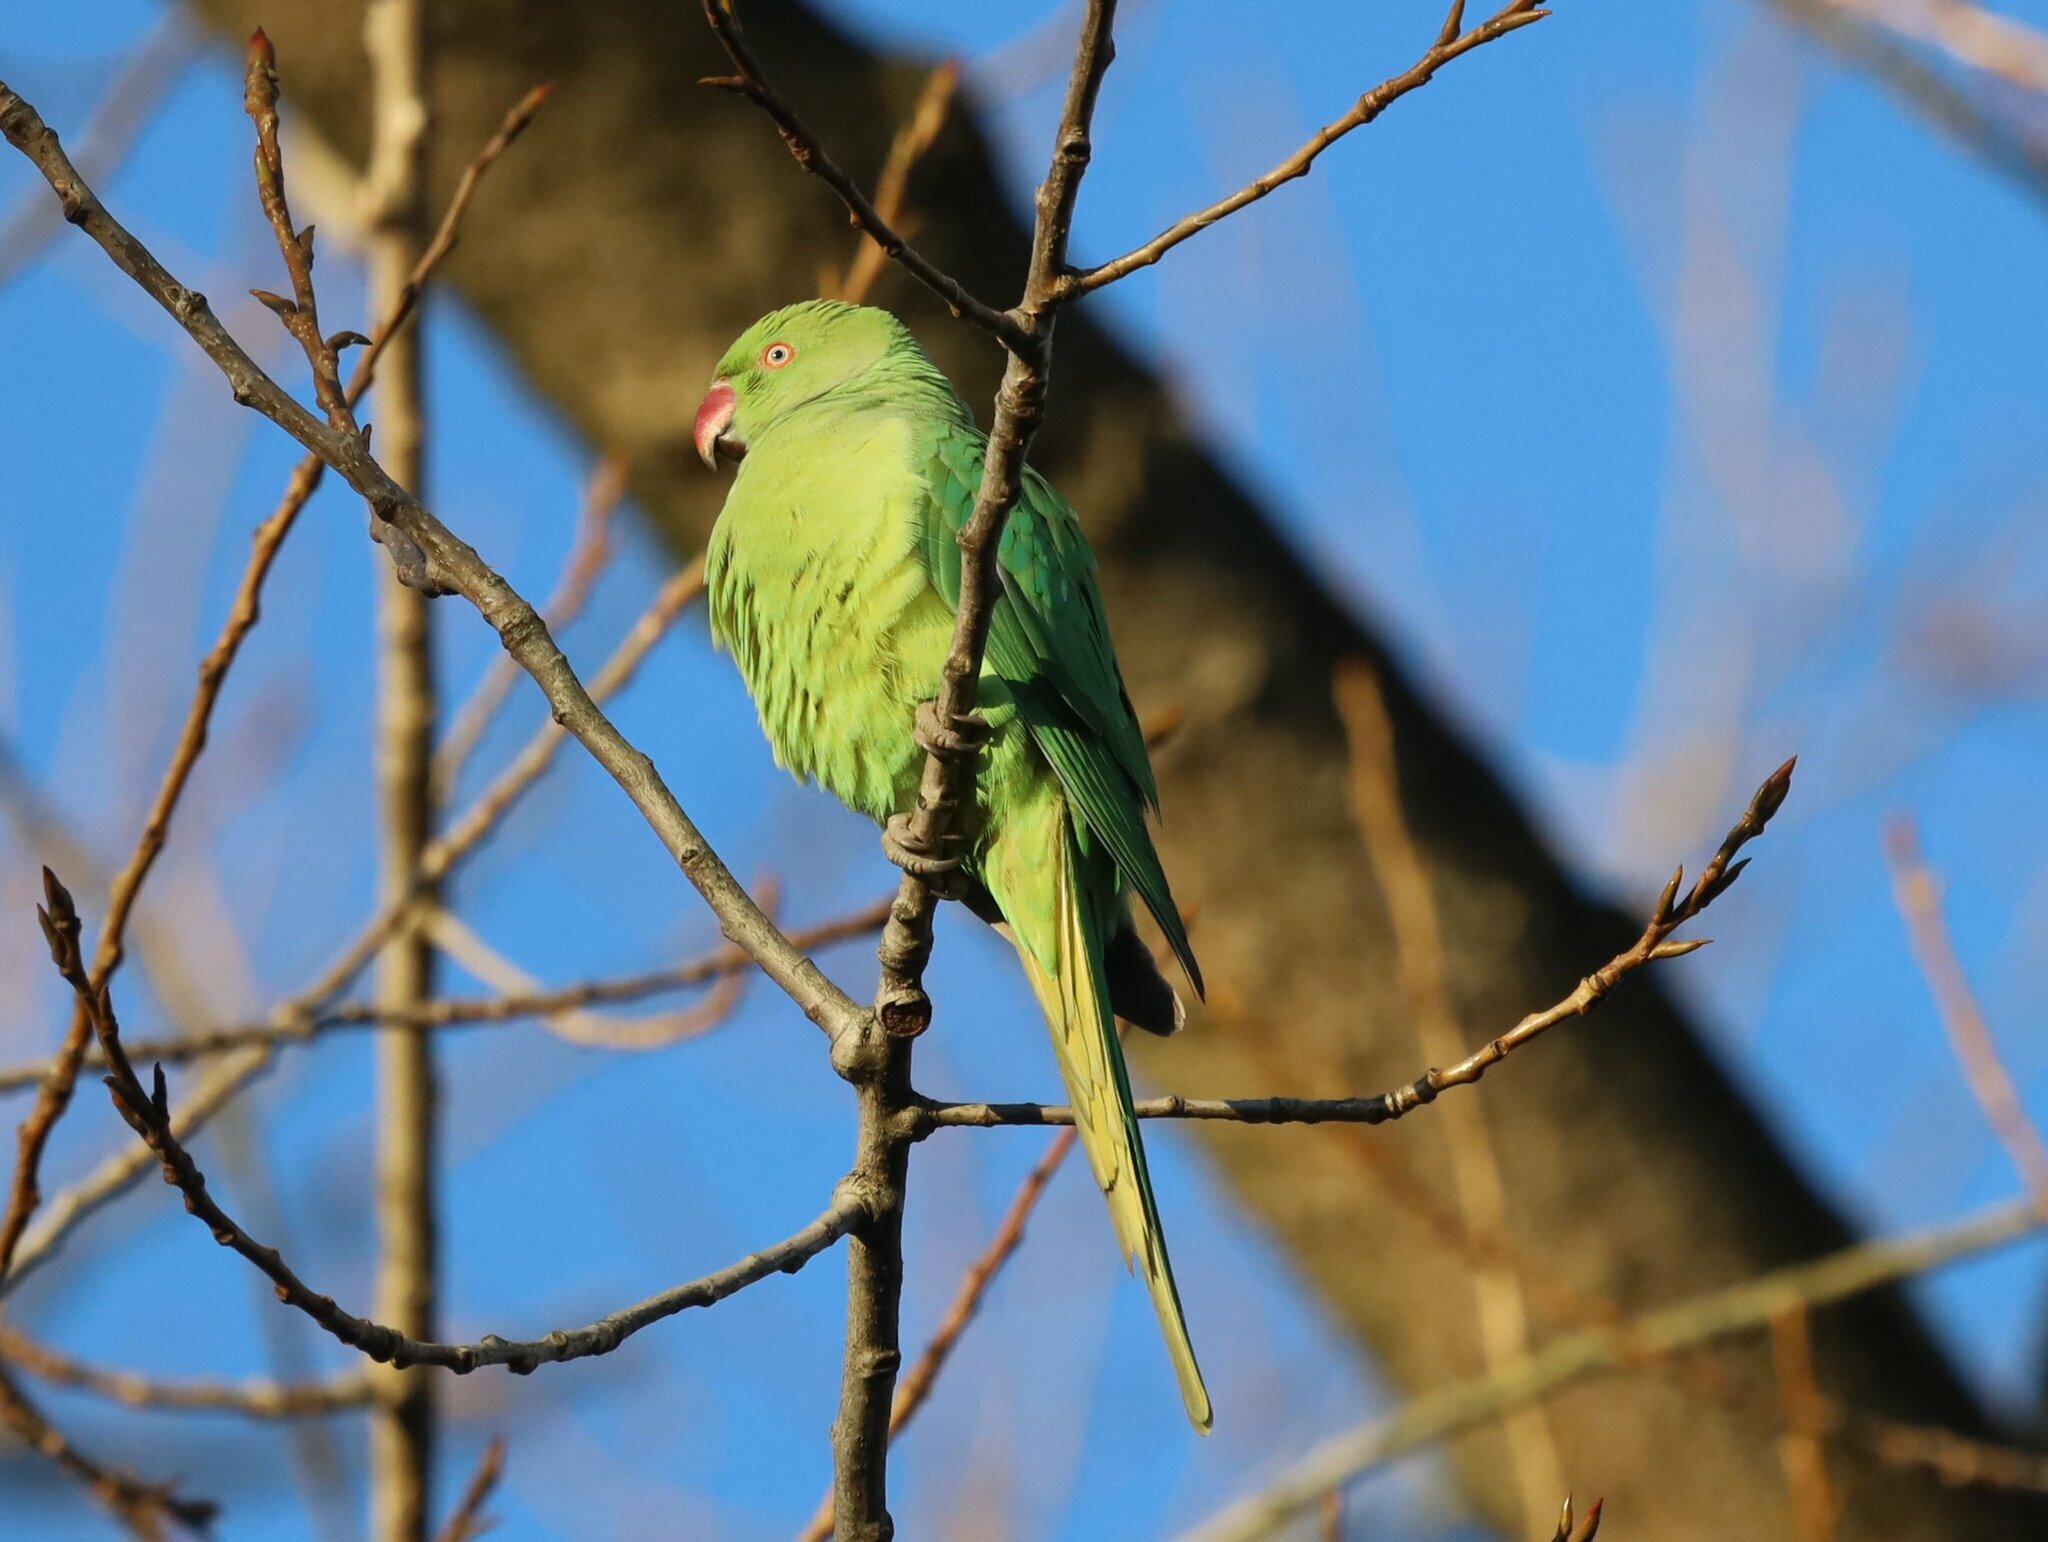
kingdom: Animalia
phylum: Chordata
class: Aves
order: Psittaciformes
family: Psittacidae
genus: Psittacula
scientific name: Psittacula krameri
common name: Rose-ringed parakeet
